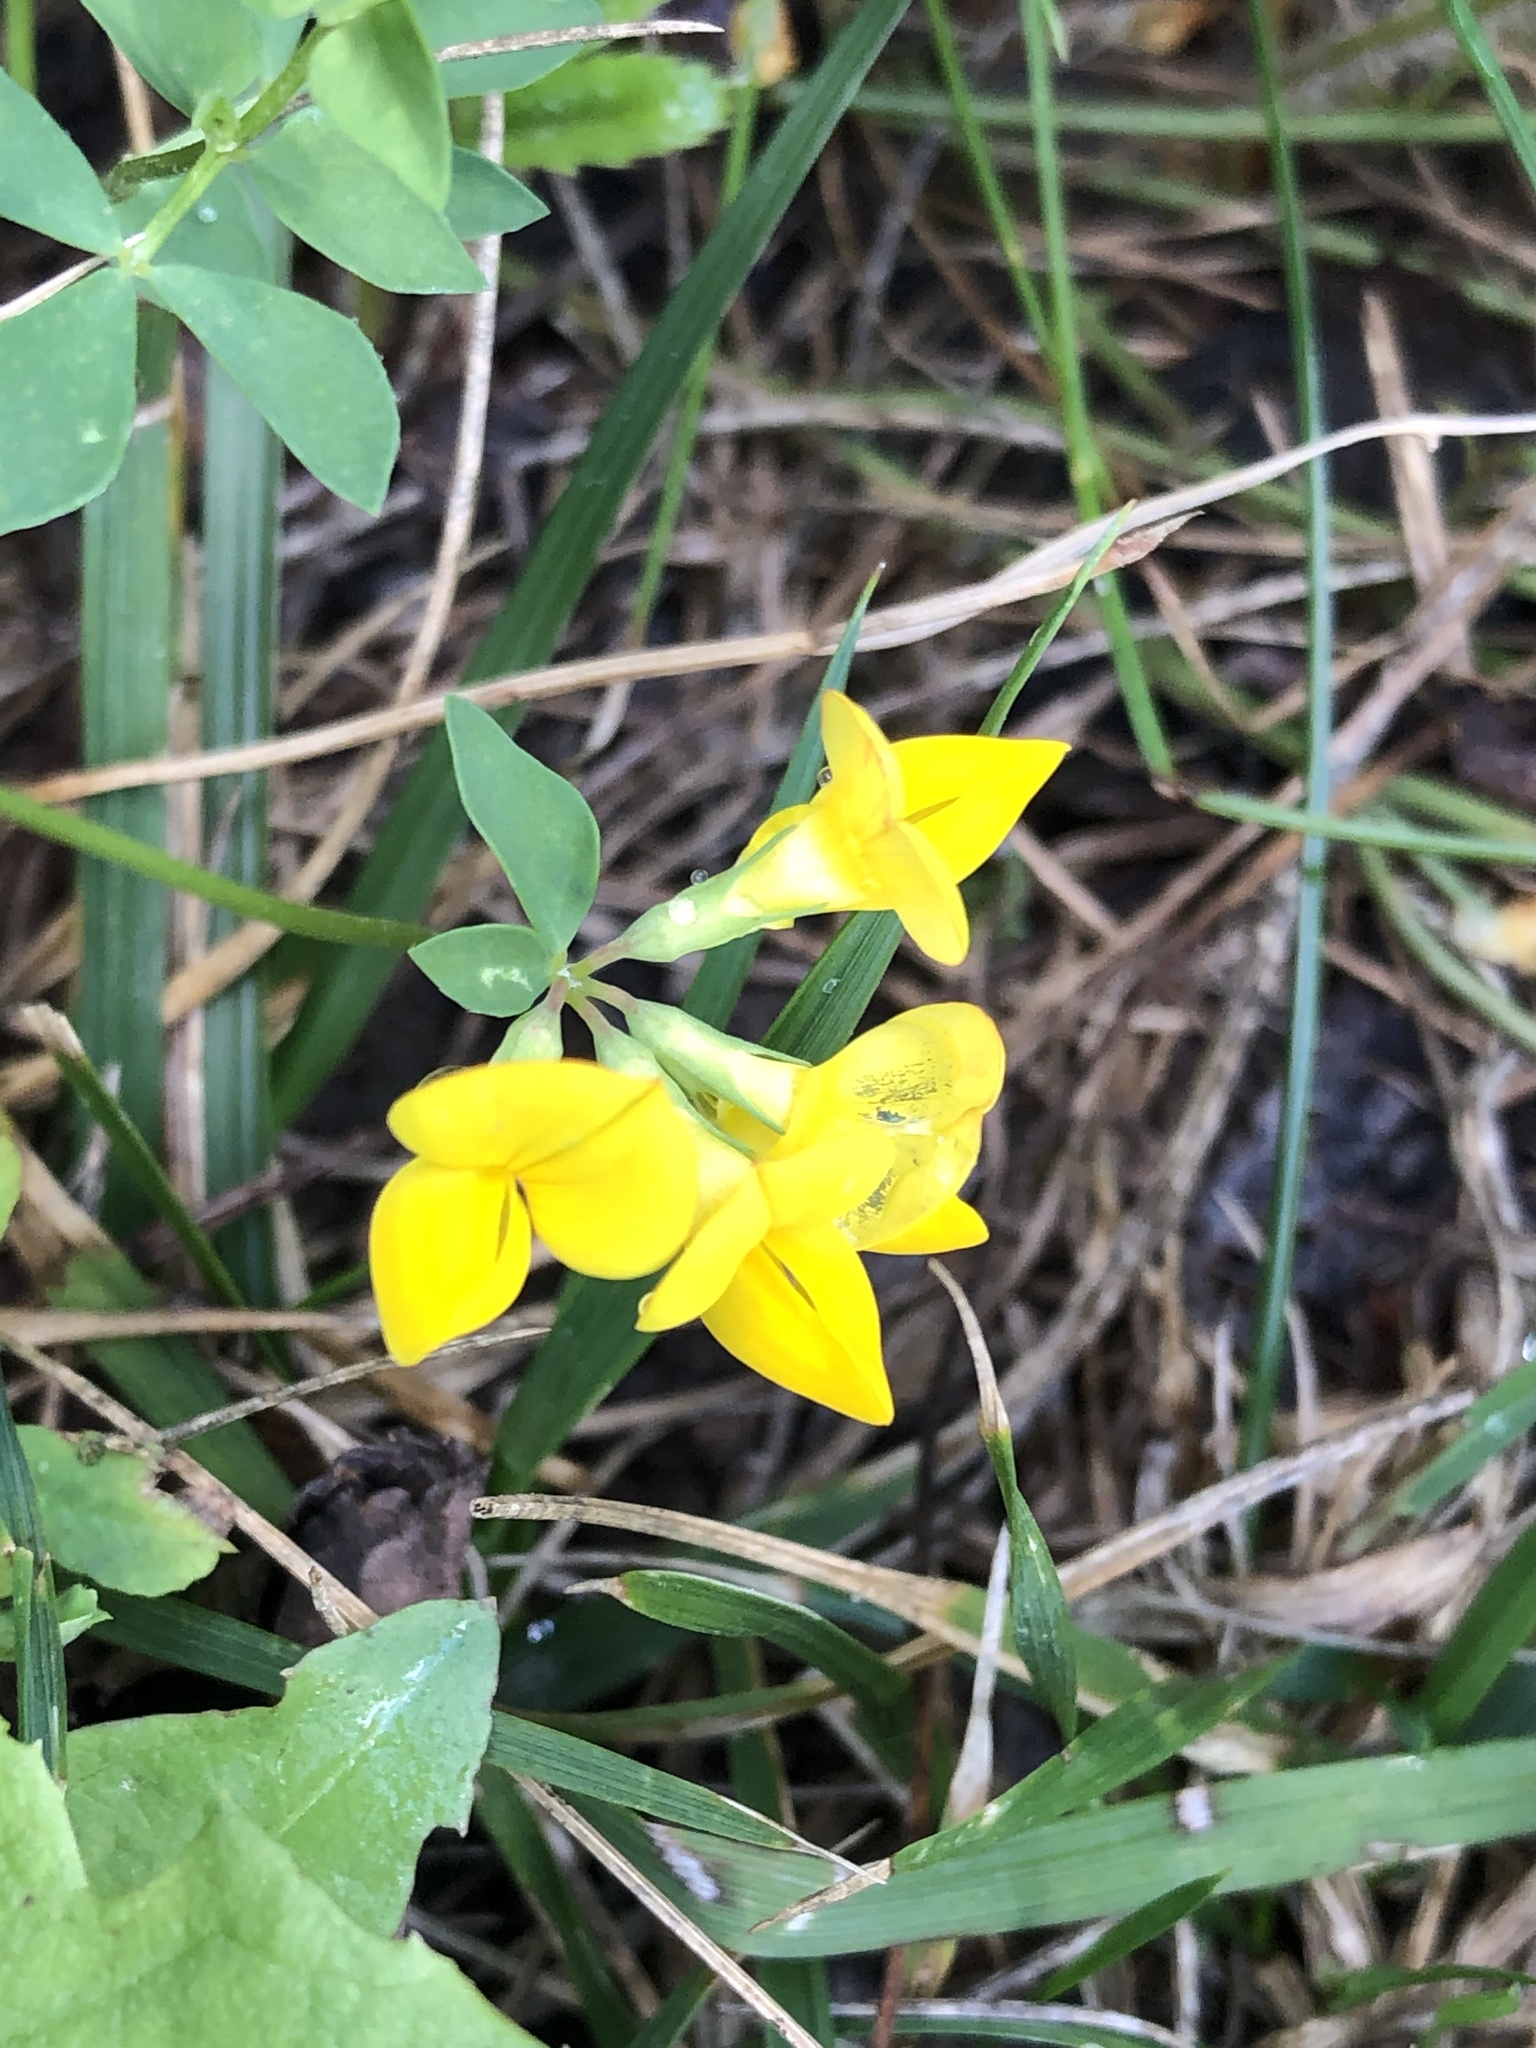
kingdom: Plantae
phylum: Tracheophyta
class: Magnoliopsida
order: Fabales
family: Fabaceae
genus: Lotus
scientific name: Lotus corniculatus
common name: Common bird's-foot-trefoil
